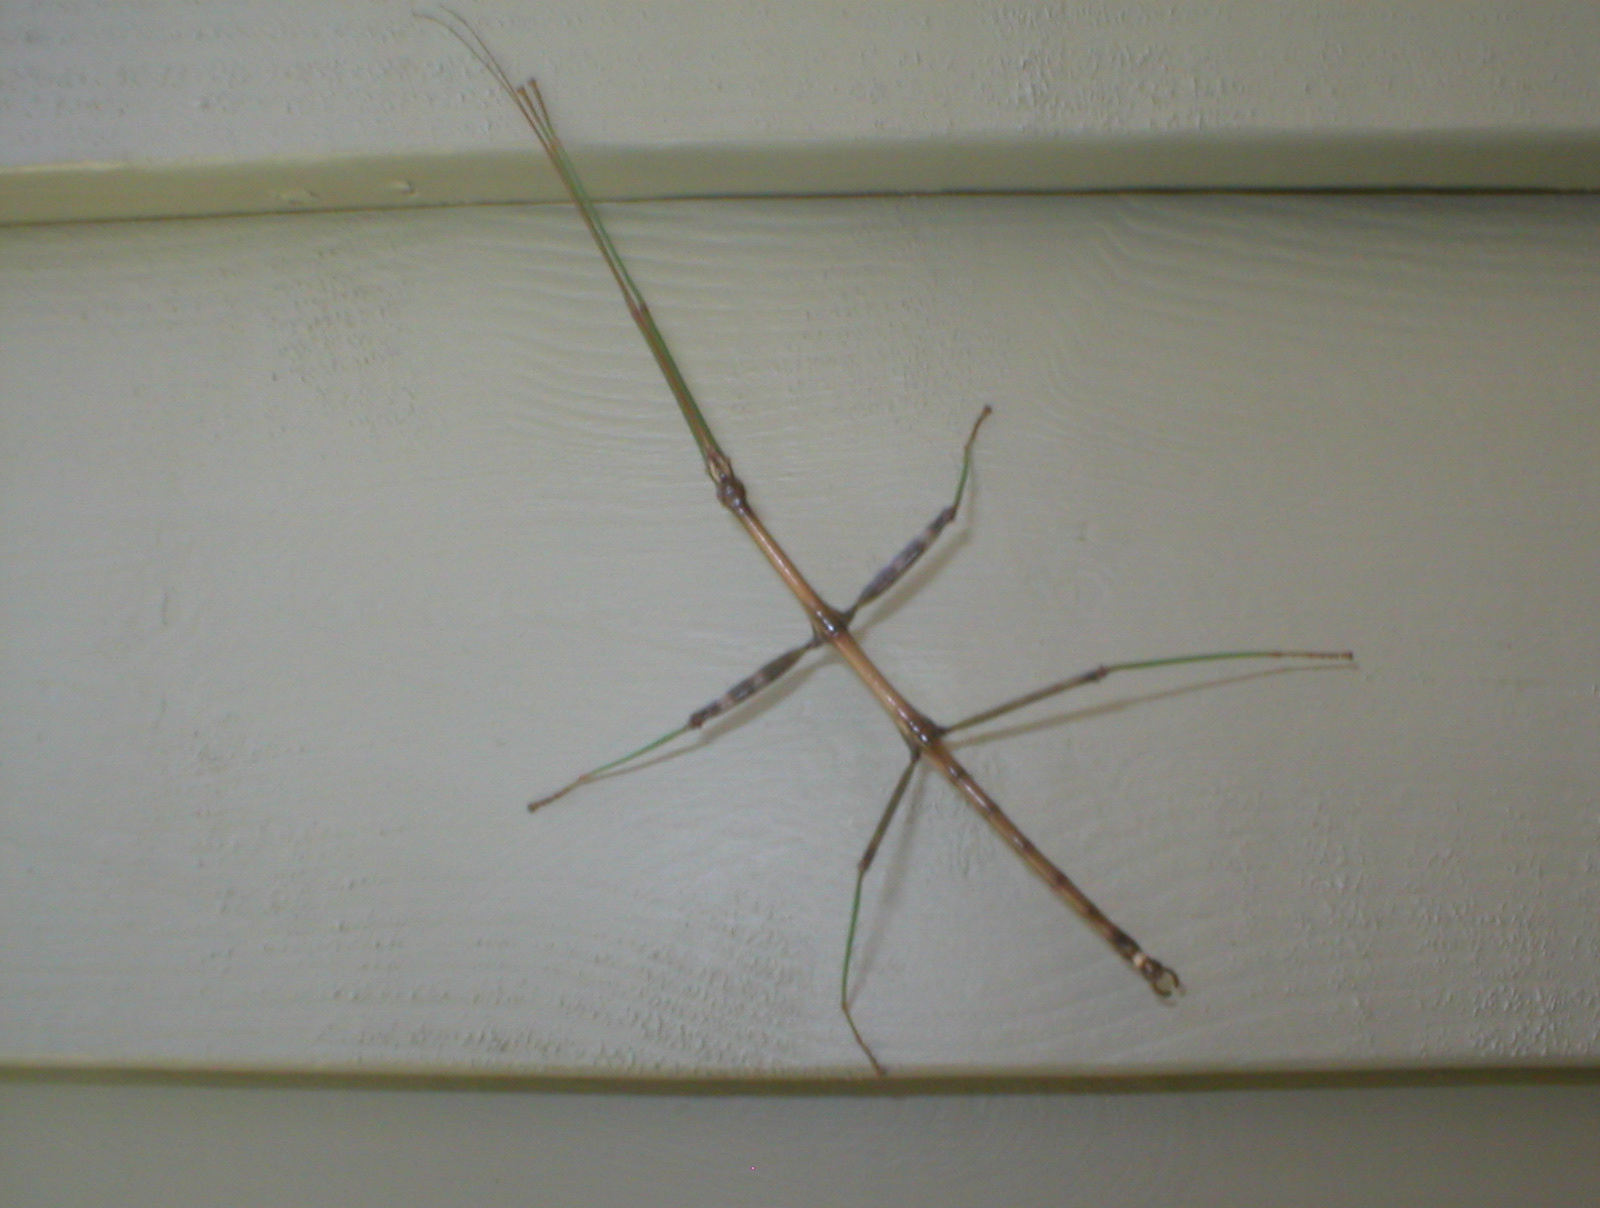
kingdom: Animalia
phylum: Arthropoda
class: Insecta
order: Phasmida
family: Diapheromeridae
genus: Diapheromera
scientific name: Diapheromera femorata
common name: Common american walkingstick
